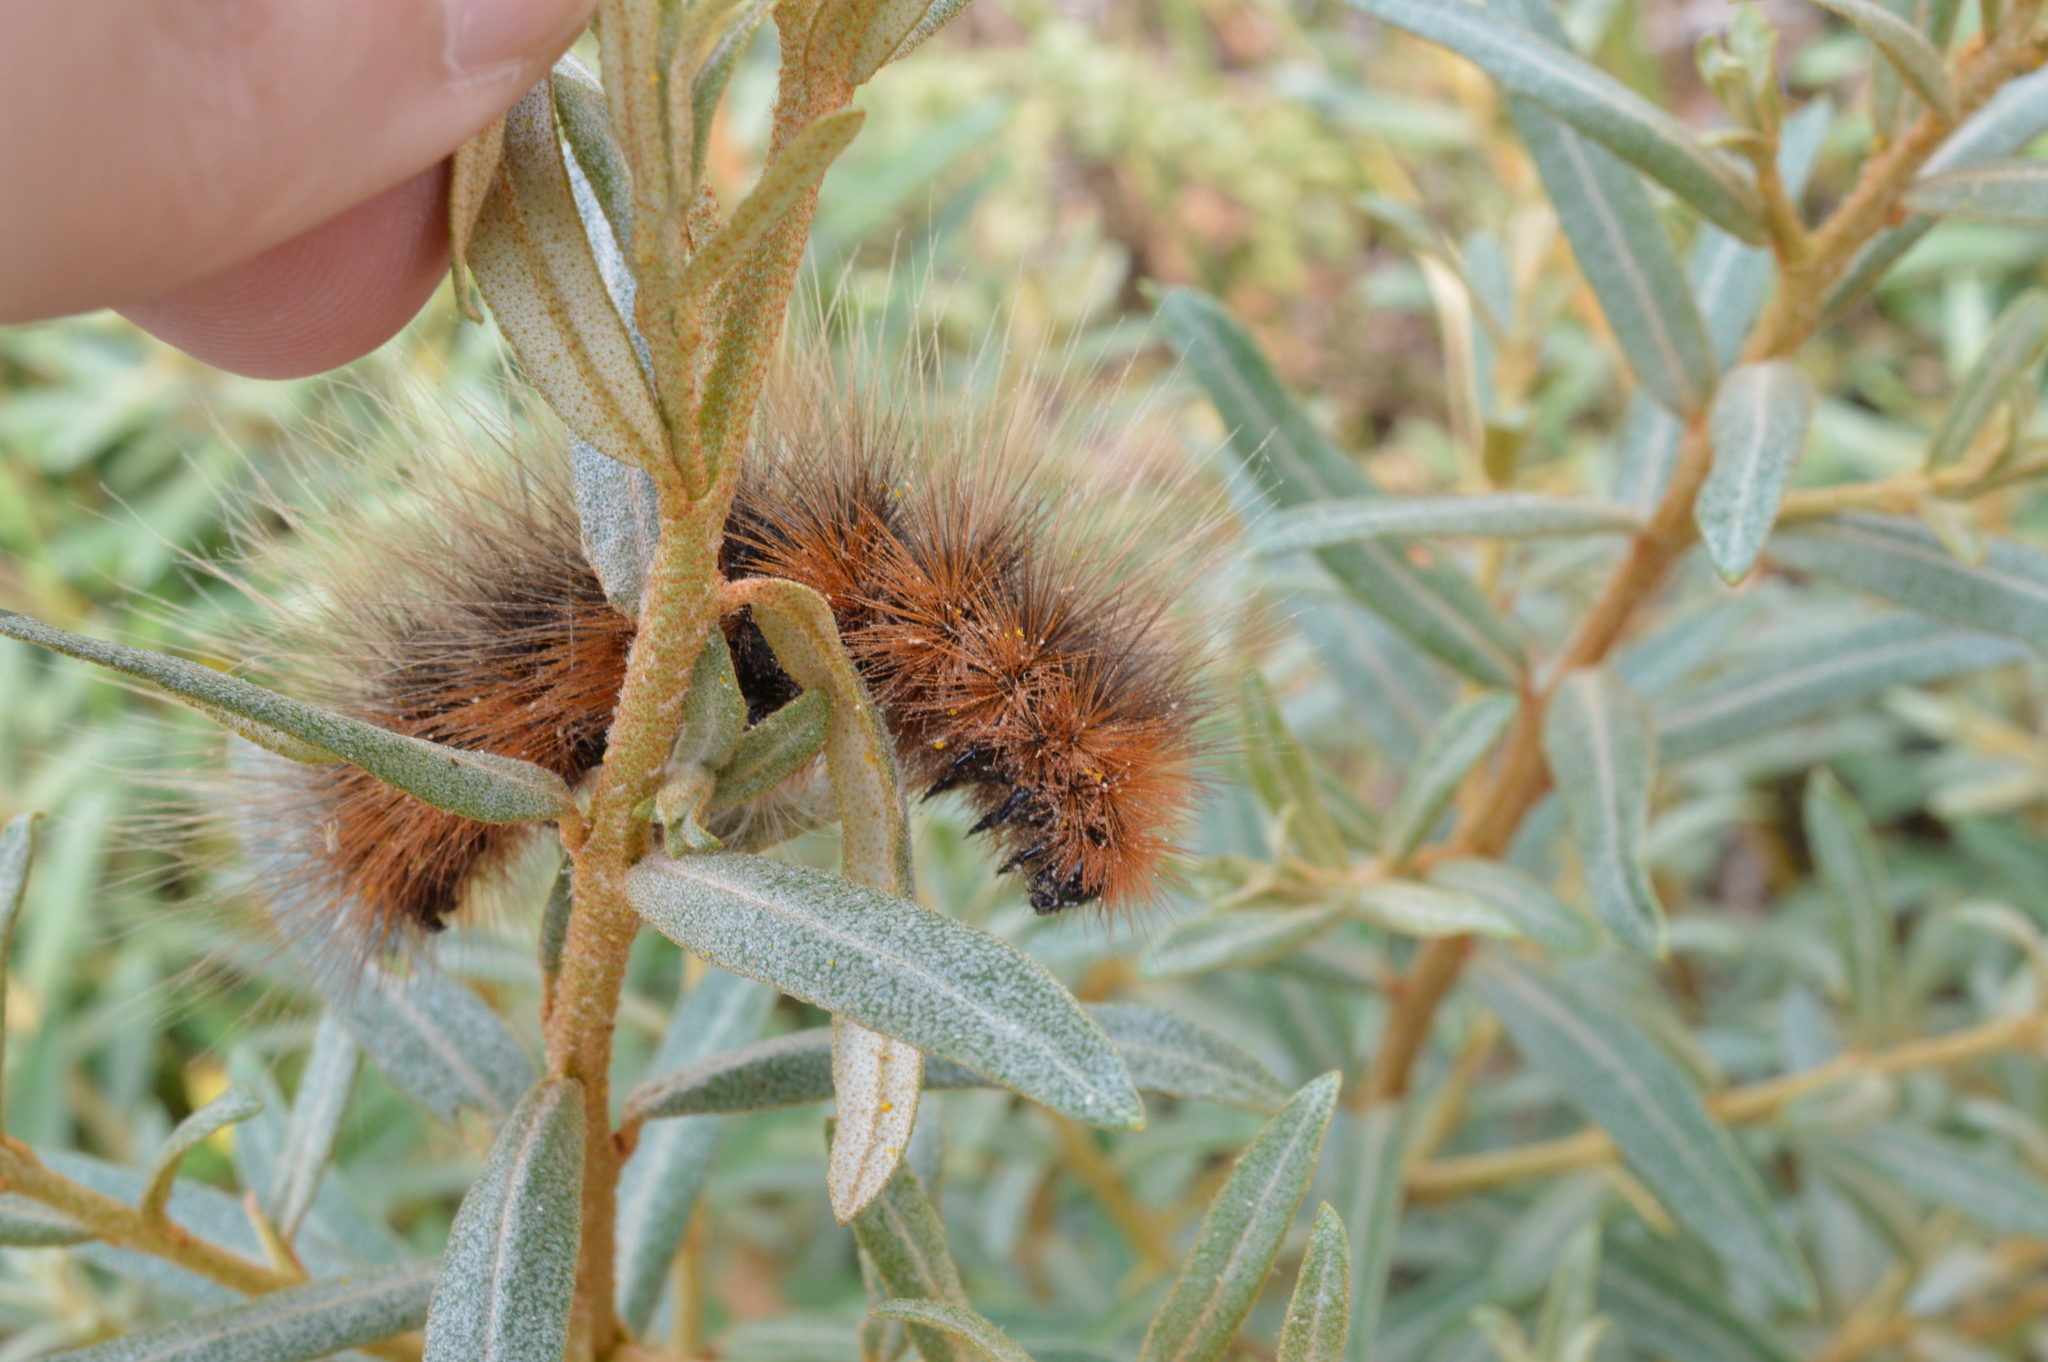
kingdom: Animalia
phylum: Arthropoda
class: Insecta
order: Lepidoptera
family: Erebidae
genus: Arctia
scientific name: Arctia caja
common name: Garden tiger
